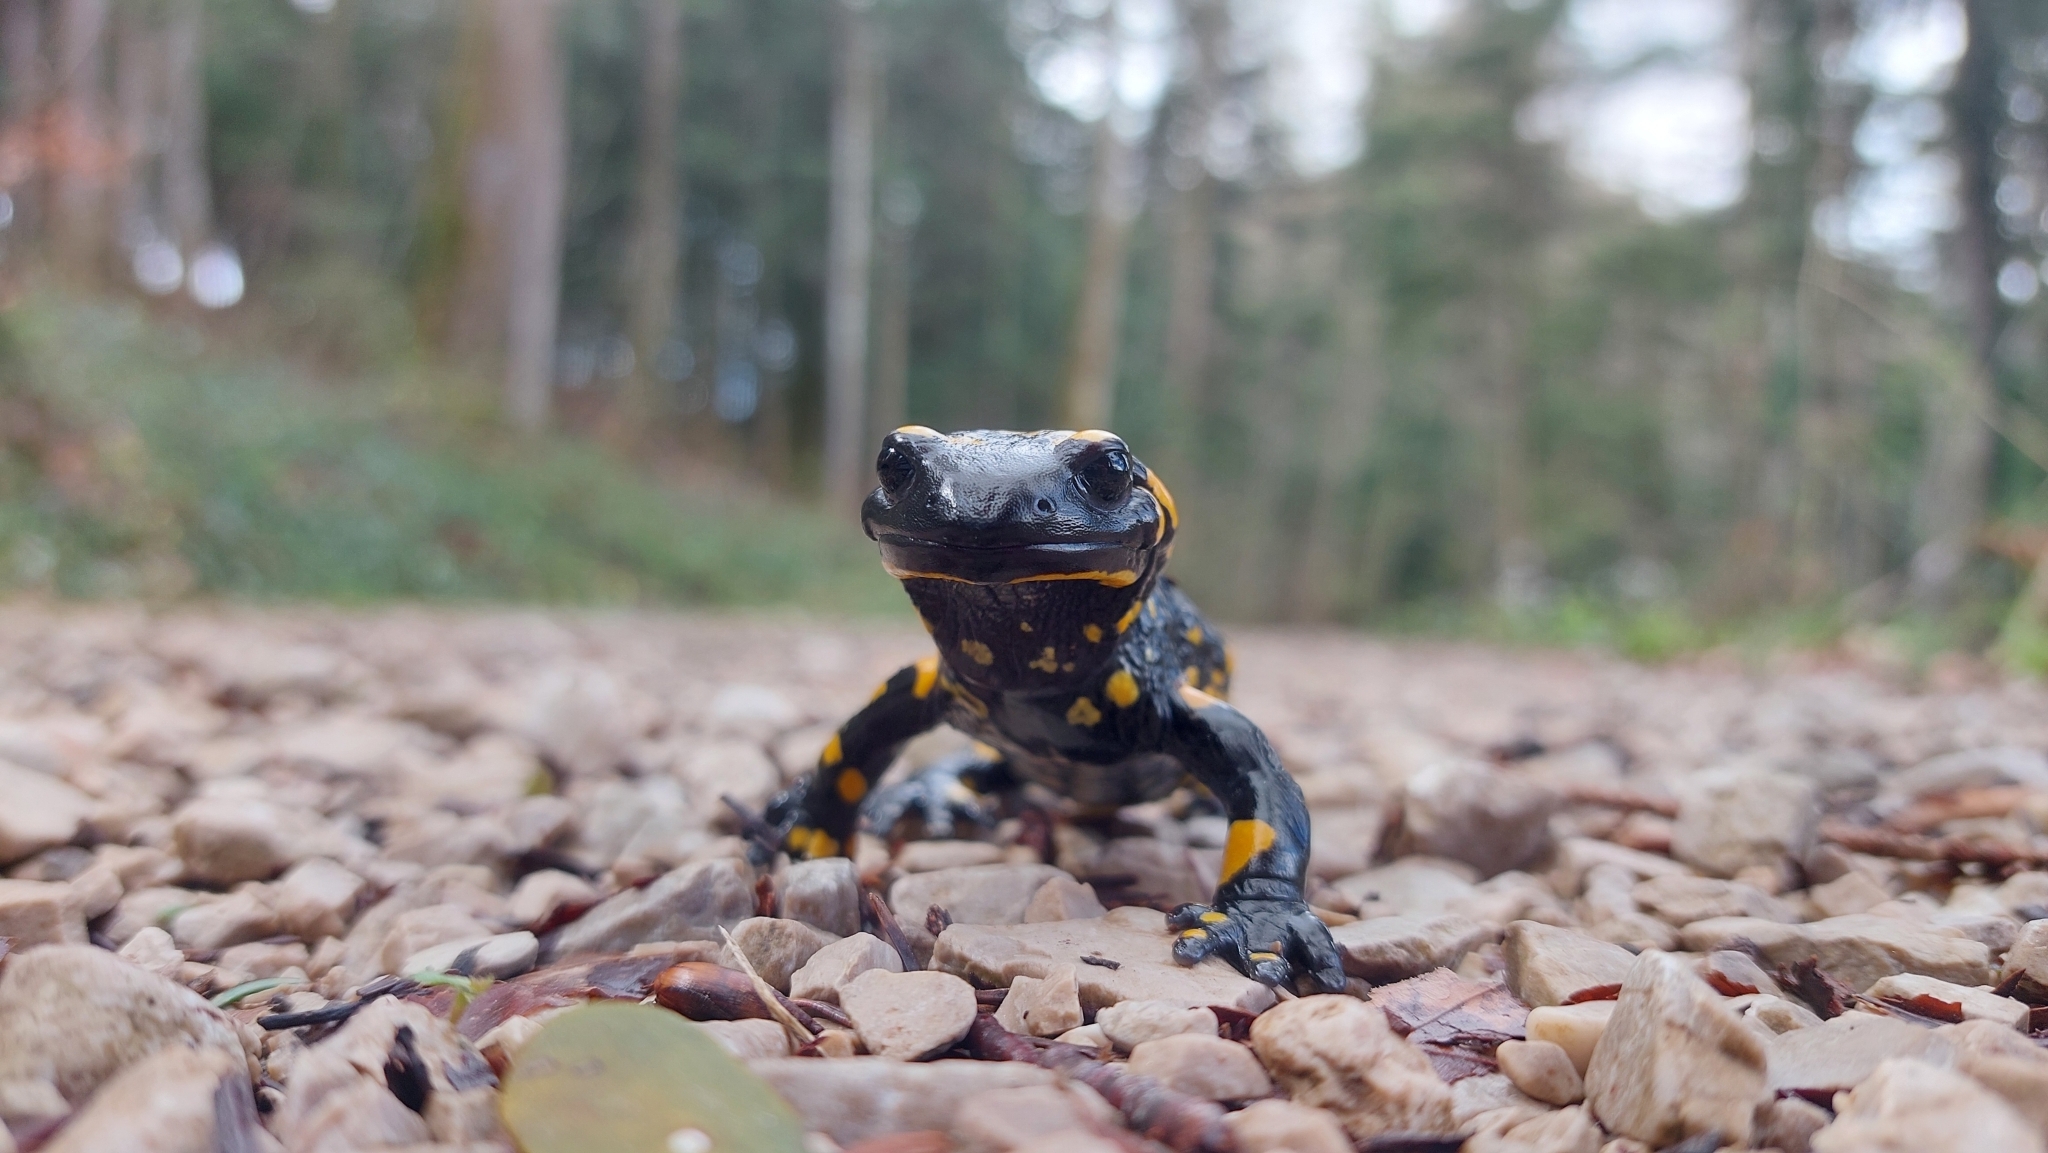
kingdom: Animalia
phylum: Chordata
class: Amphibia
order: Caudata
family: Salamandridae
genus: Salamandra
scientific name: Salamandra salamandra
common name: Fire salamander
